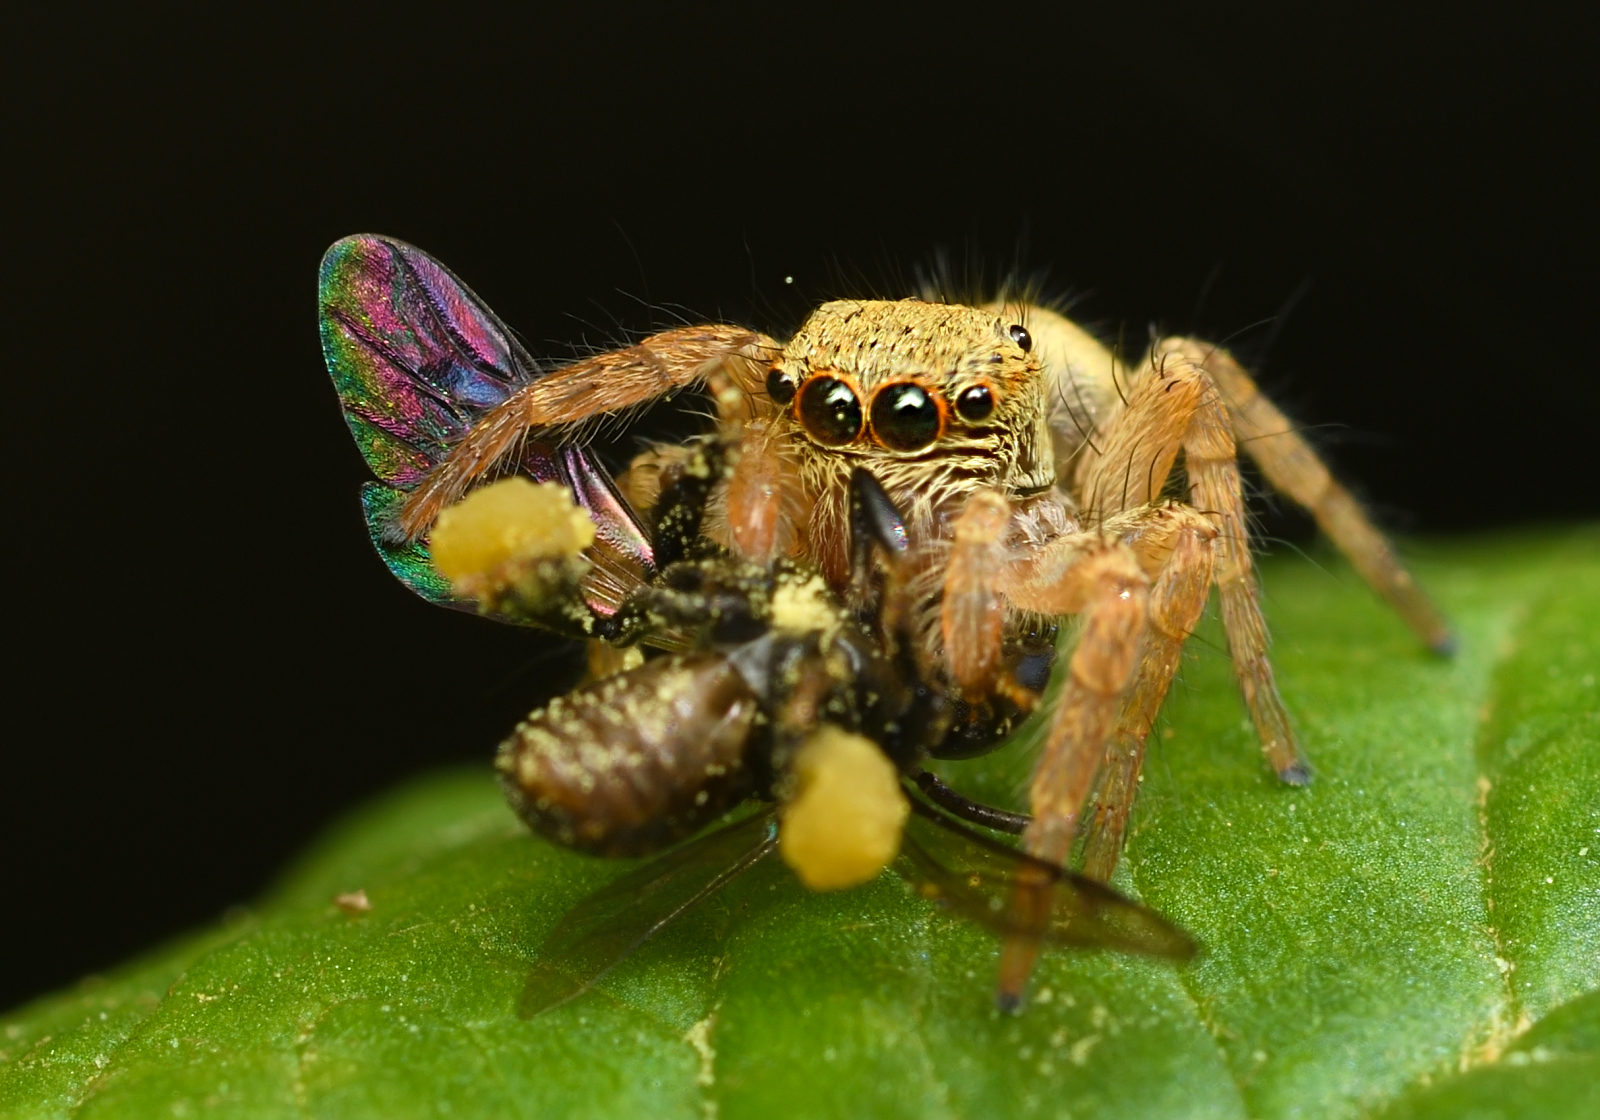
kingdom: Animalia
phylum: Arthropoda
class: Arachnida
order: Araneae
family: Salticidae
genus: Carrhotus
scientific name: Carrhotus viduus
